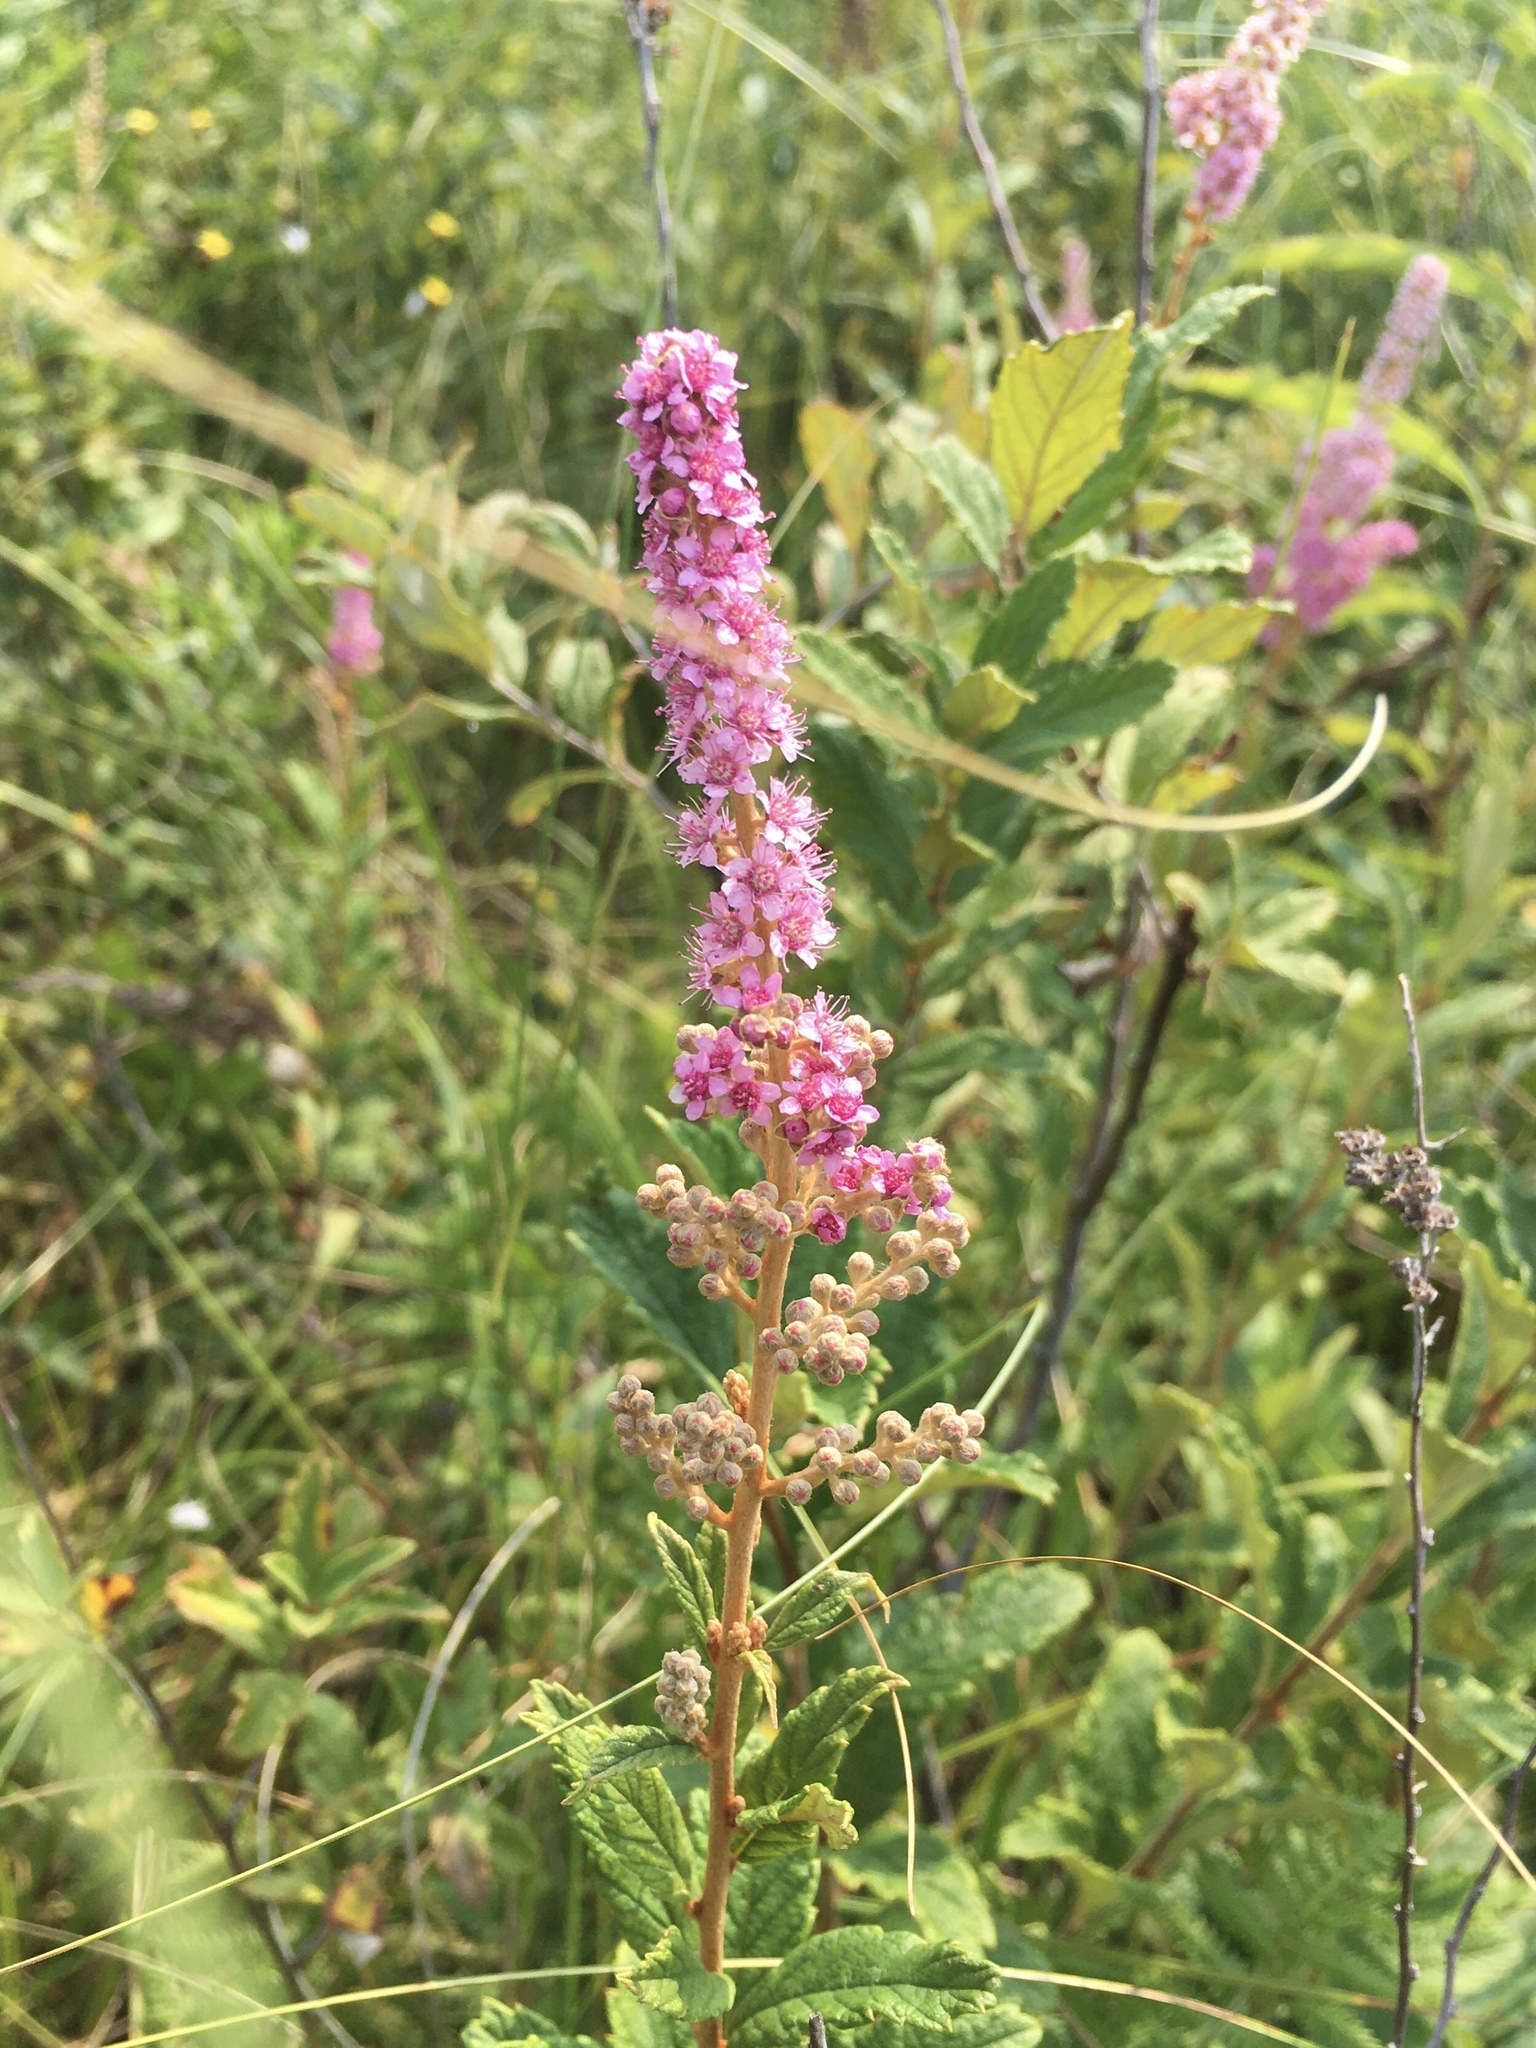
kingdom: Plantae
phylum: Tracheophyta
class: Magnoliopsida
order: Rosales
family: Rosaceae
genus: Spiraea
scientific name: Spiraea tomentosa
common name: Hardhack
